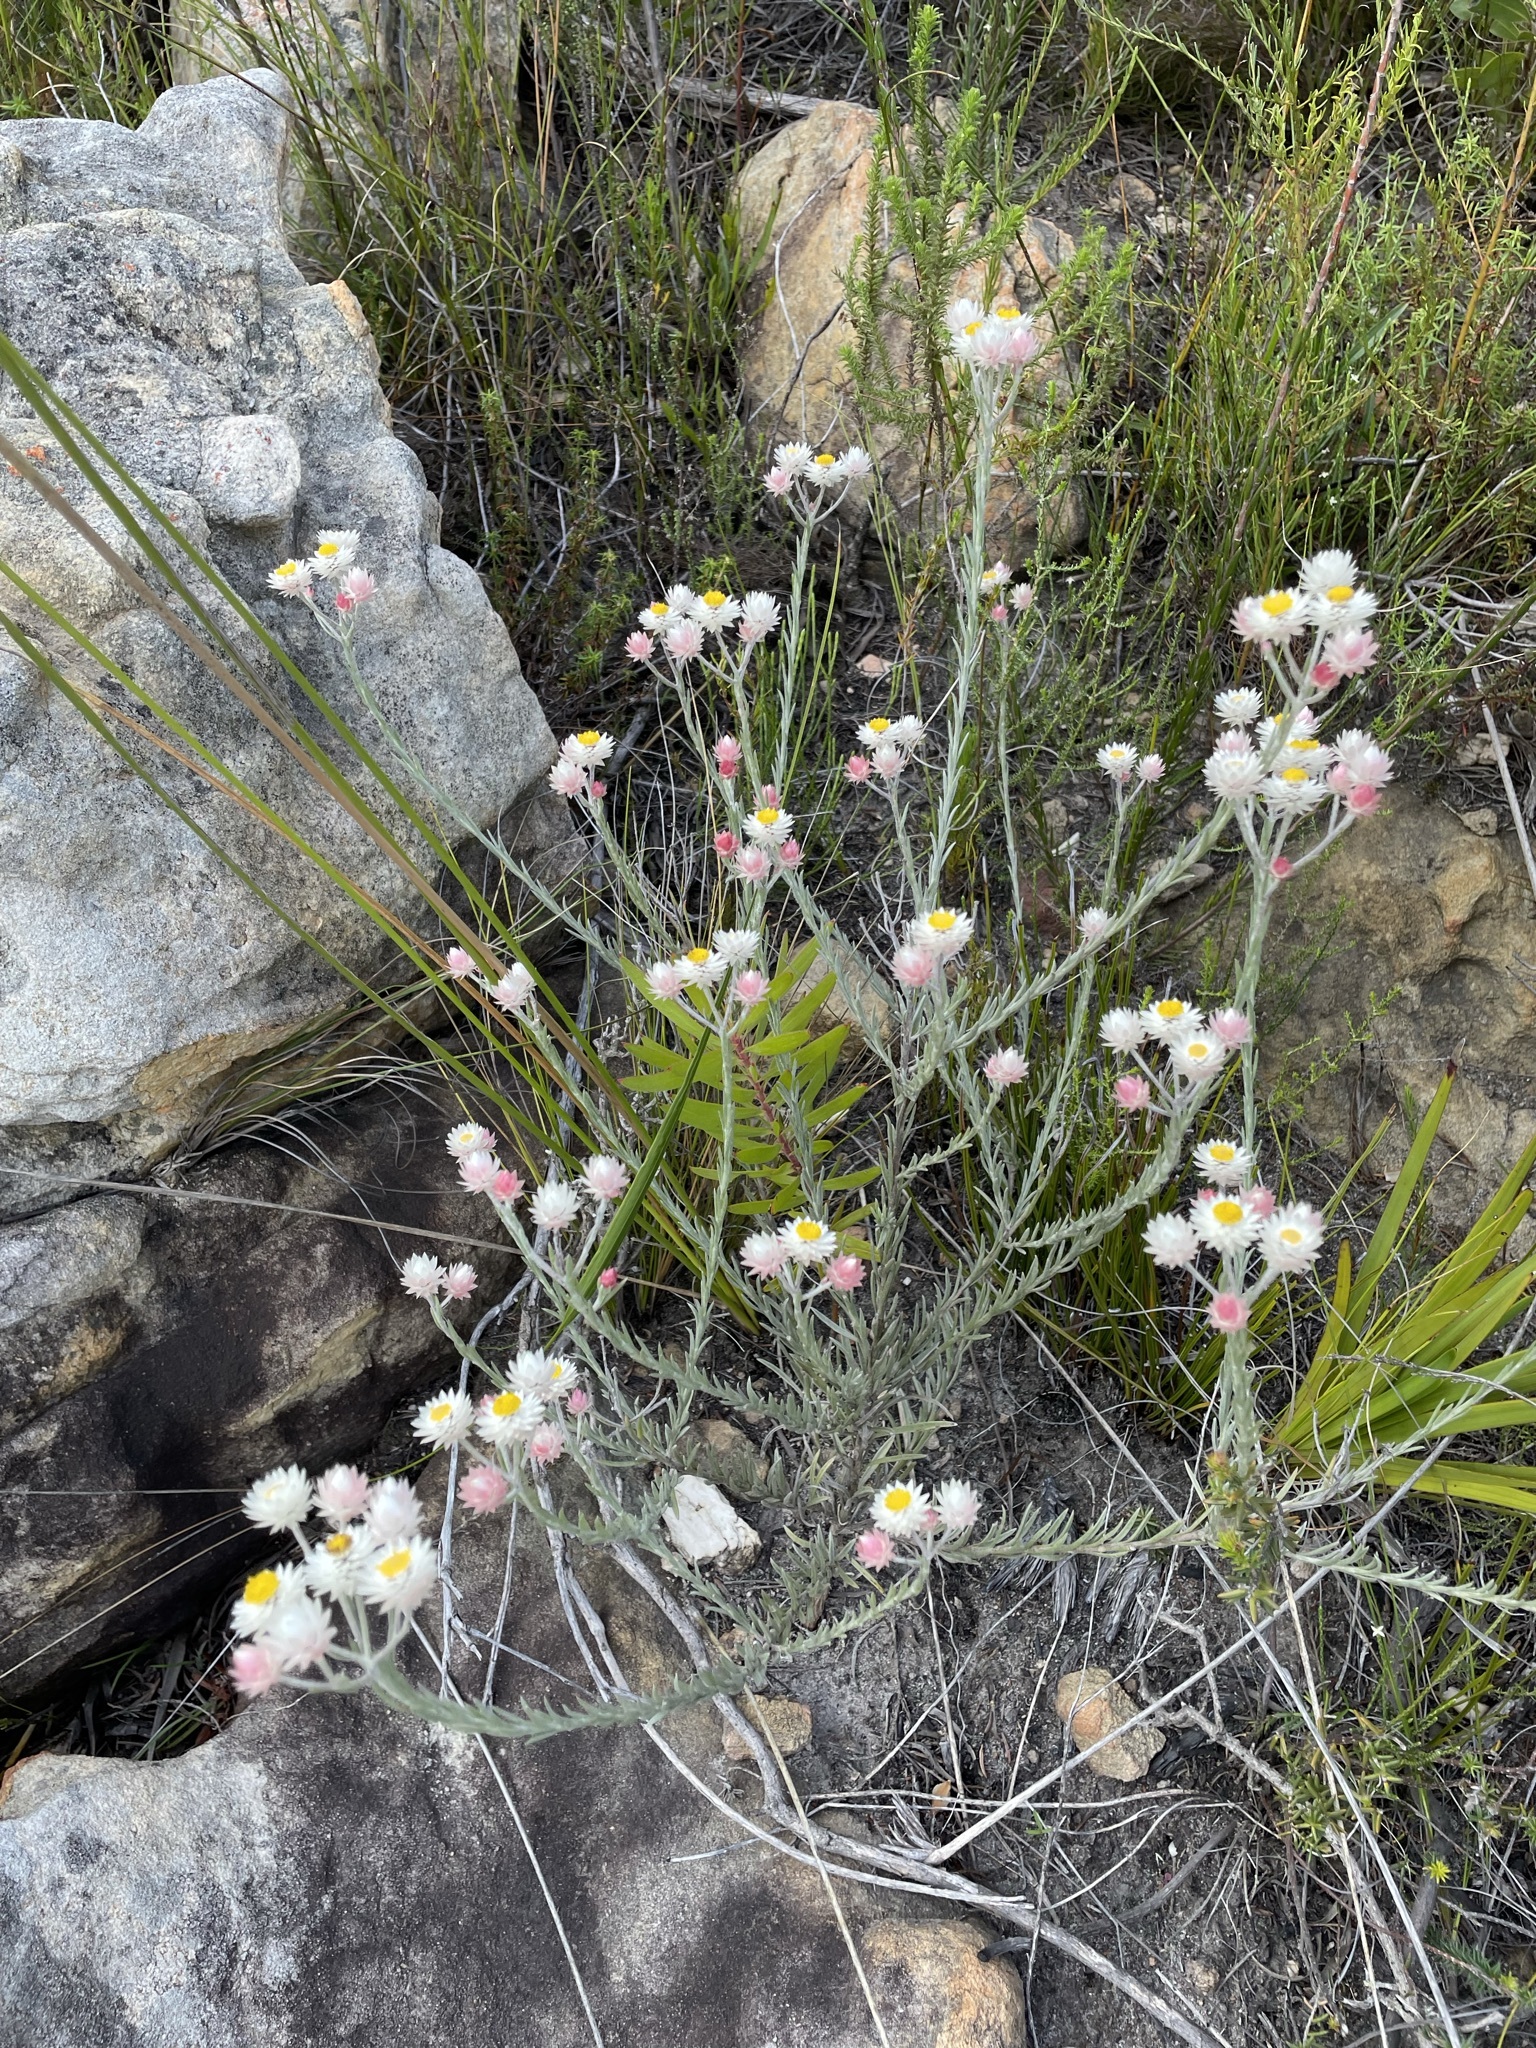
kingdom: Plantae
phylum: Tracheophyta
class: Magnoliopsida
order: Asterales
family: Asteraceae
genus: Achyranthemum
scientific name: Achyranthemum paniculatum
